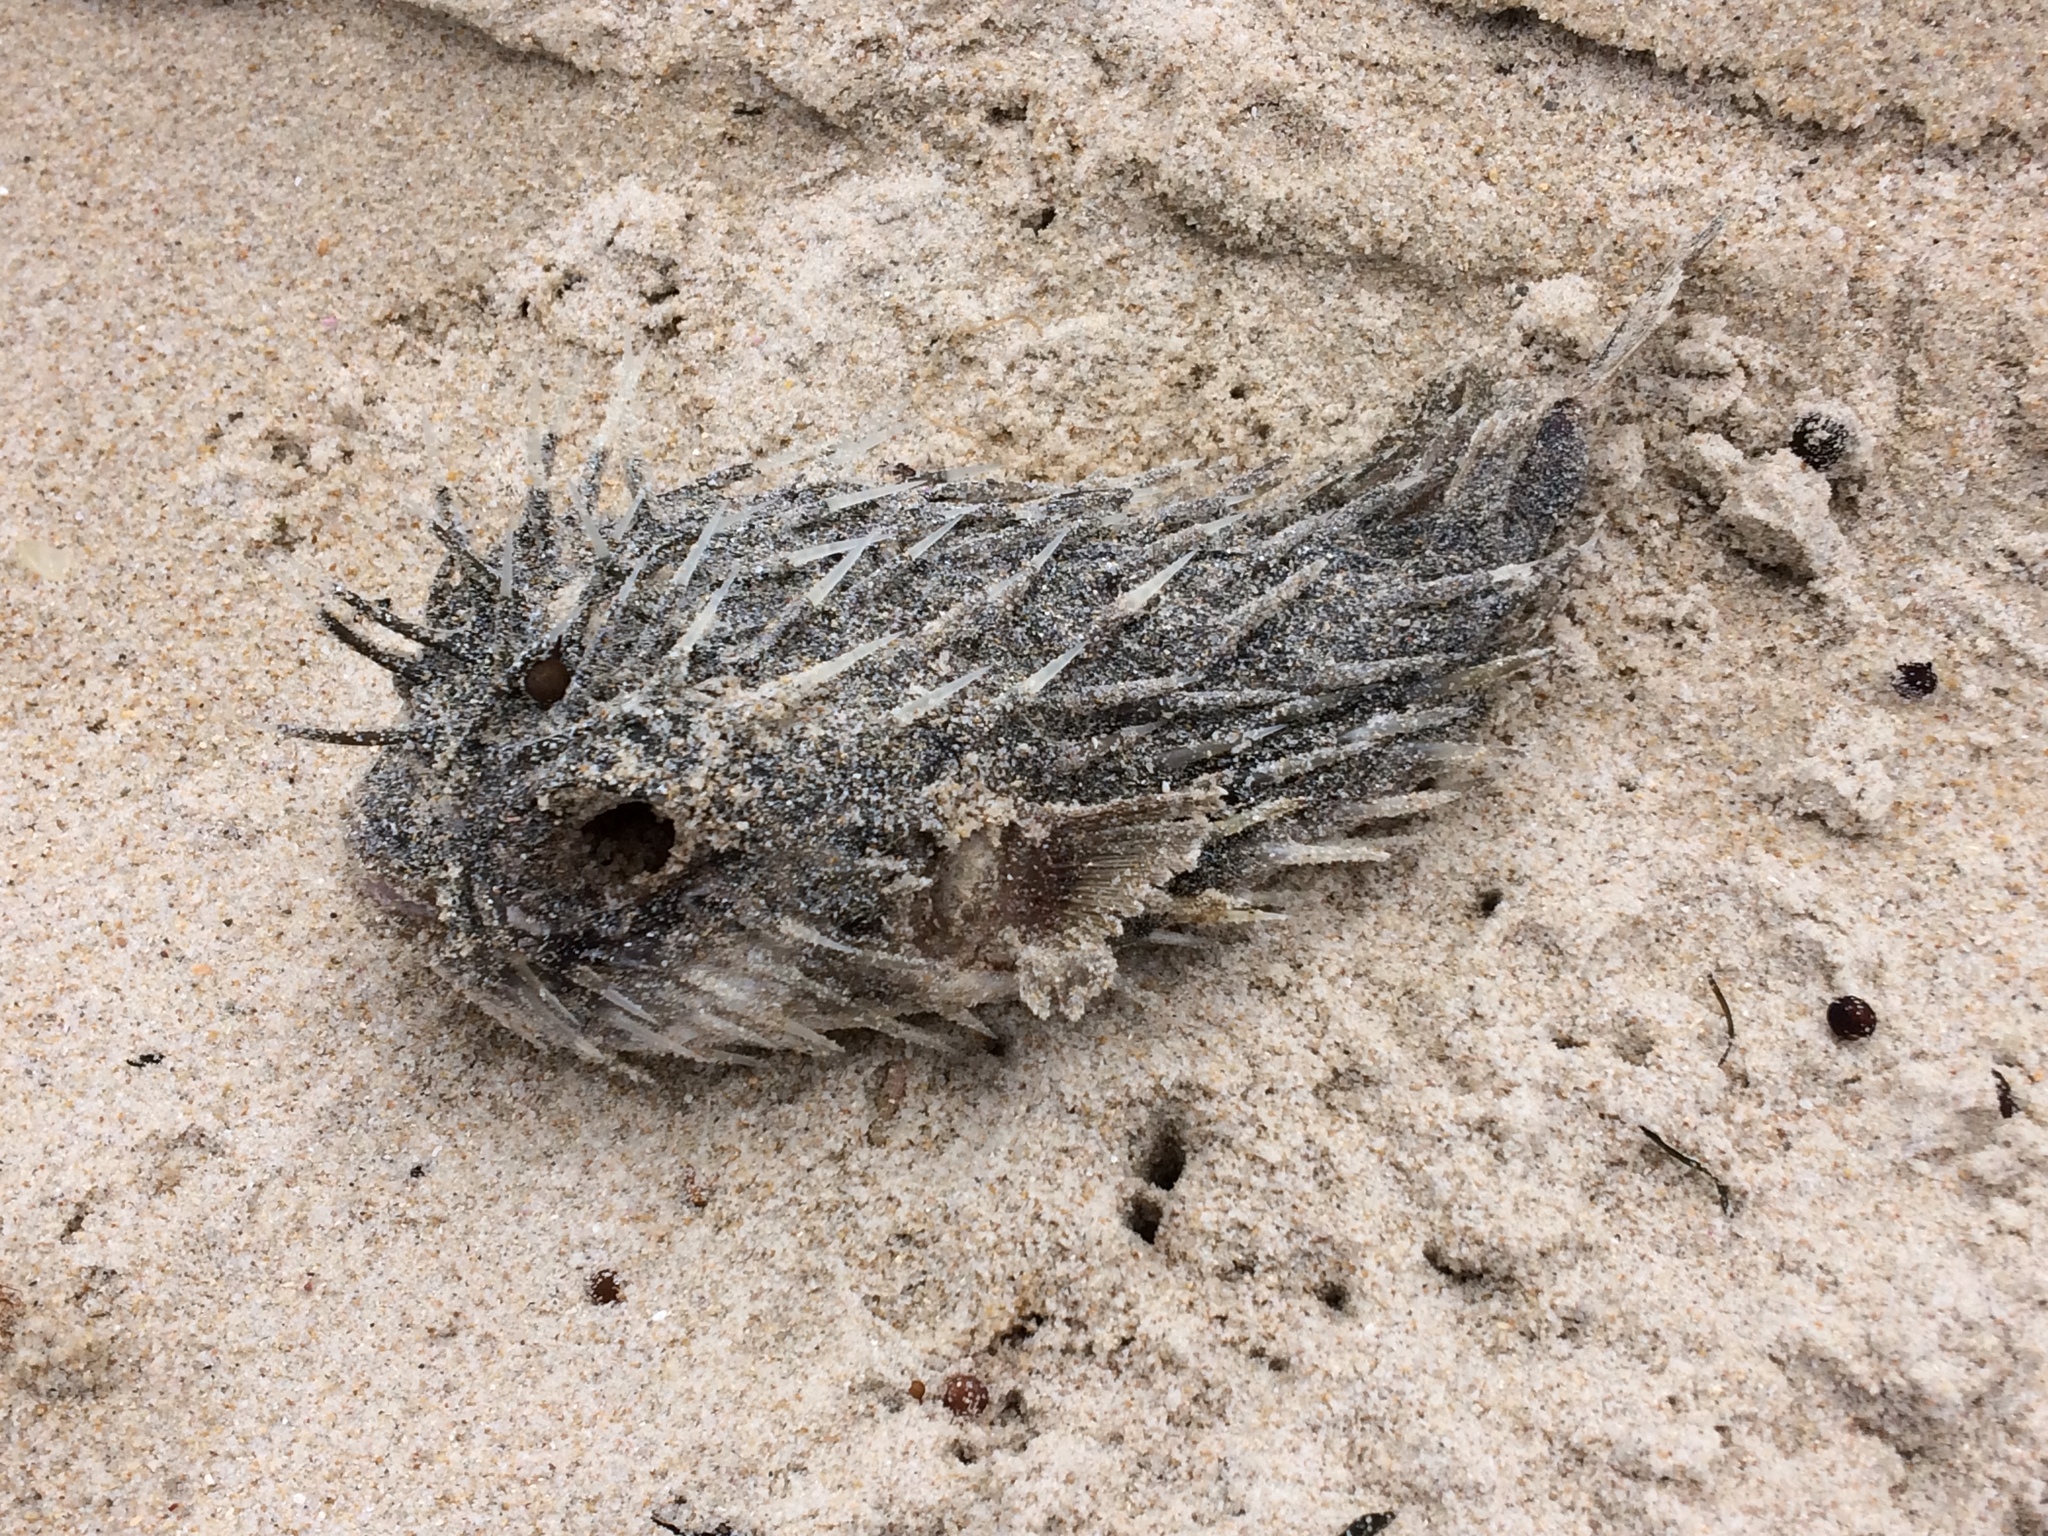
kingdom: Animalia
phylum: Chordata
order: Tetraodontiformes
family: Diodontidae
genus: Diodon
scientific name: Diodon nicthemerus
